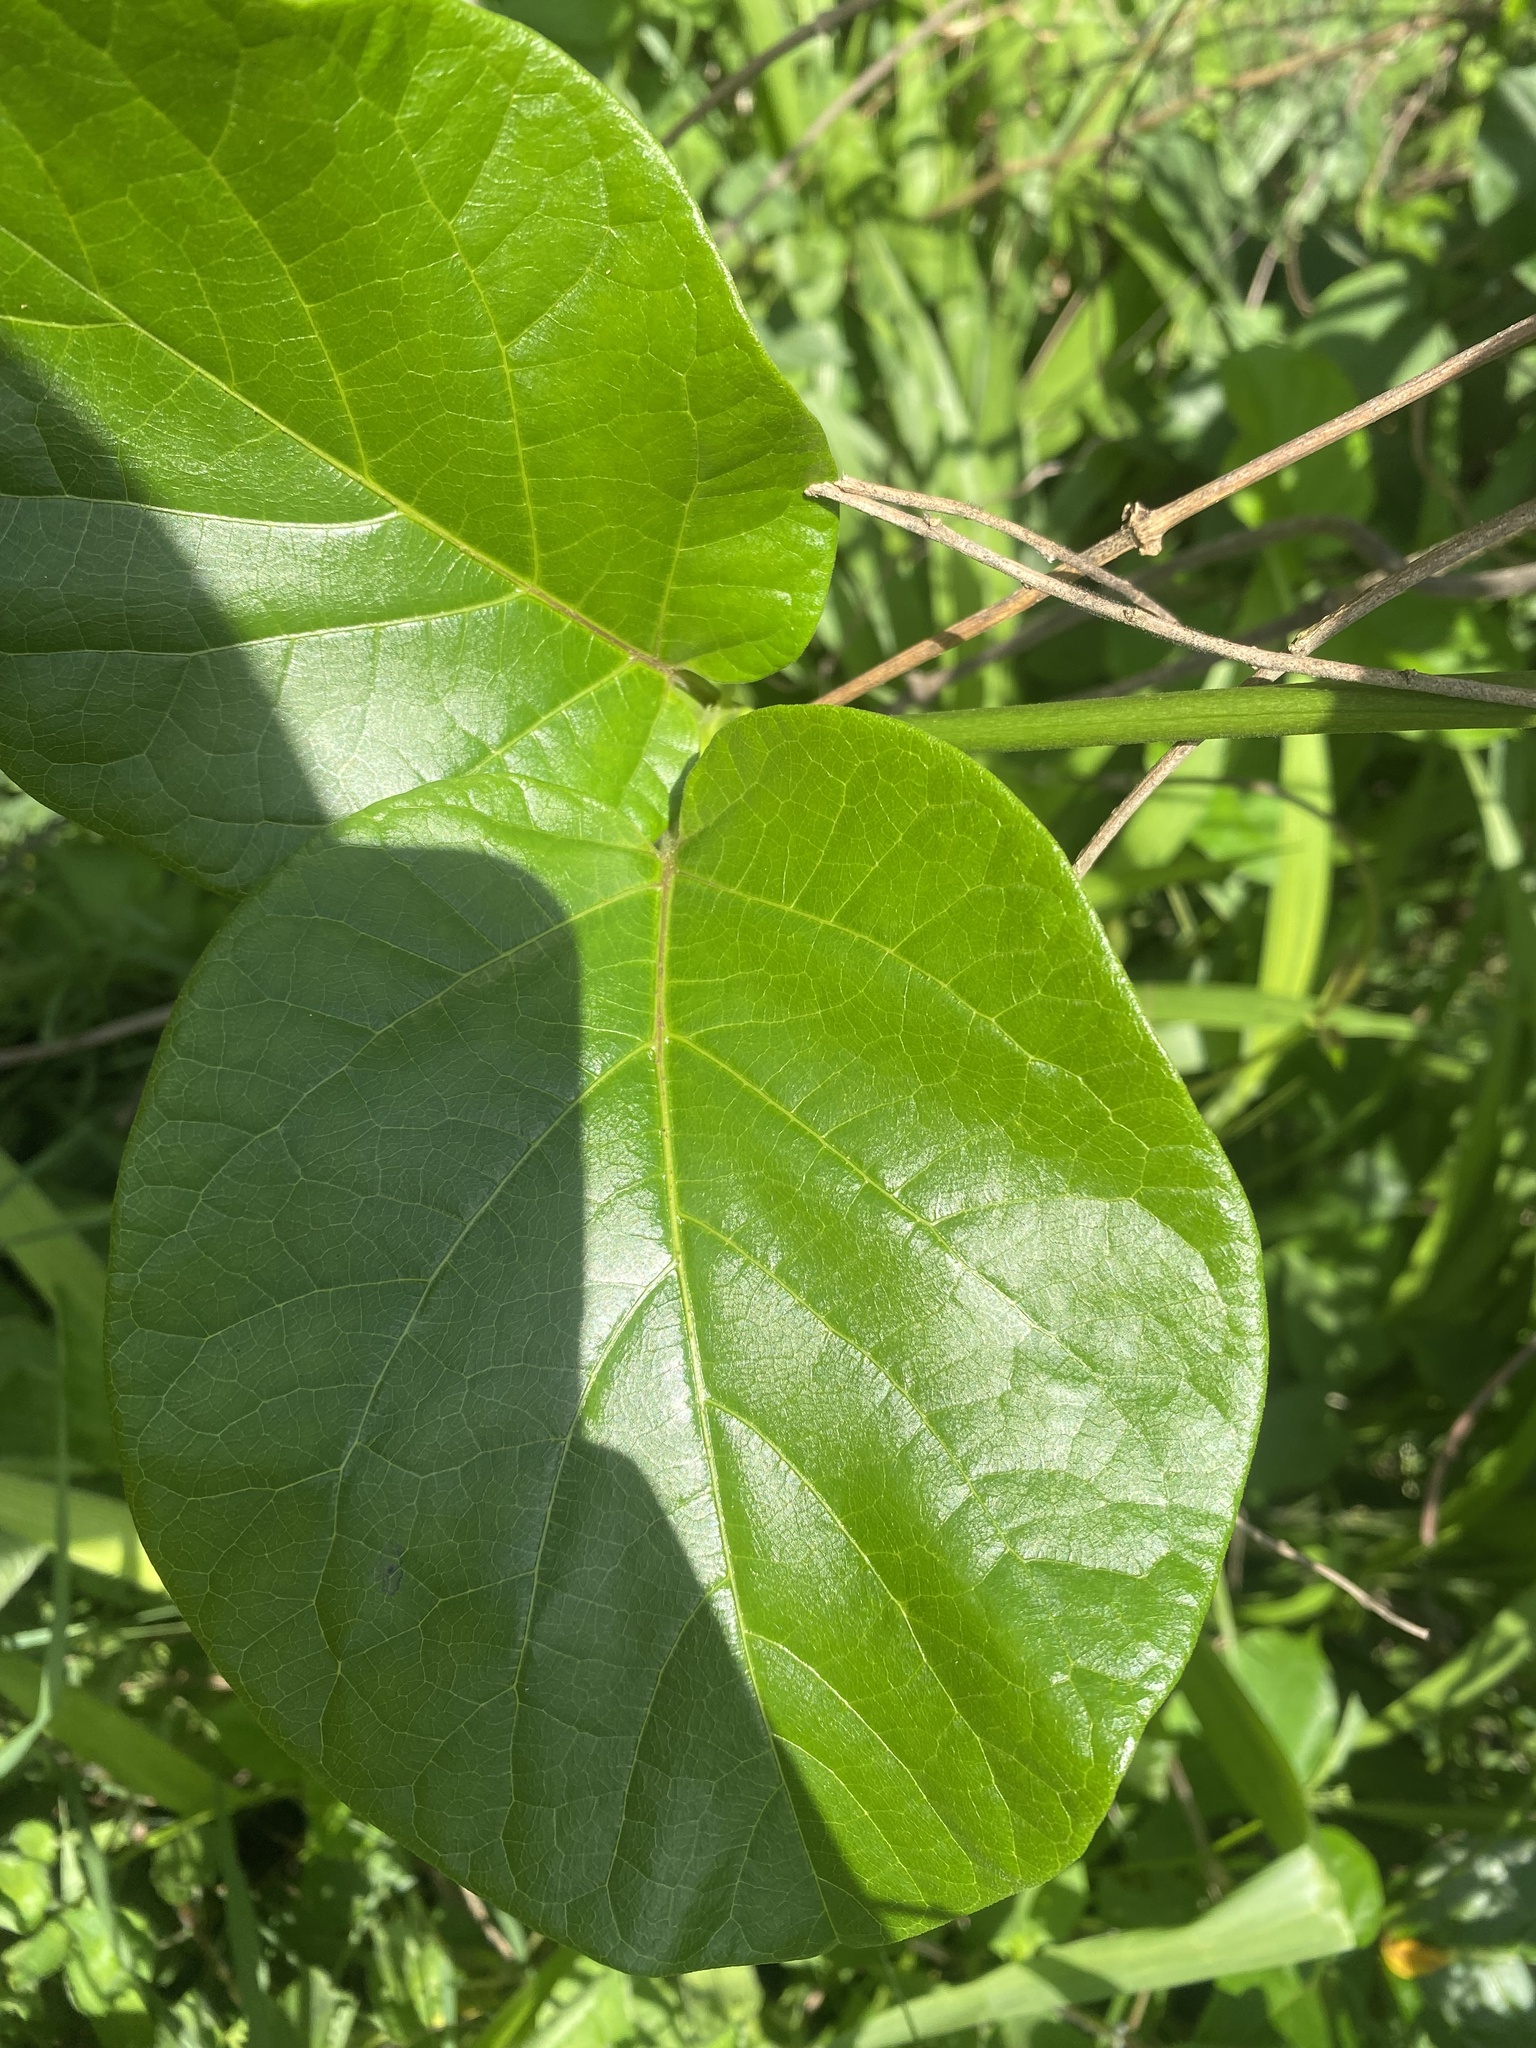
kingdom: Plantae
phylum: Tracheophyta
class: Magnoliopsida
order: Gentianales
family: Apocynaceae
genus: Mondia
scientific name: Mondia whitei
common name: Mondia
